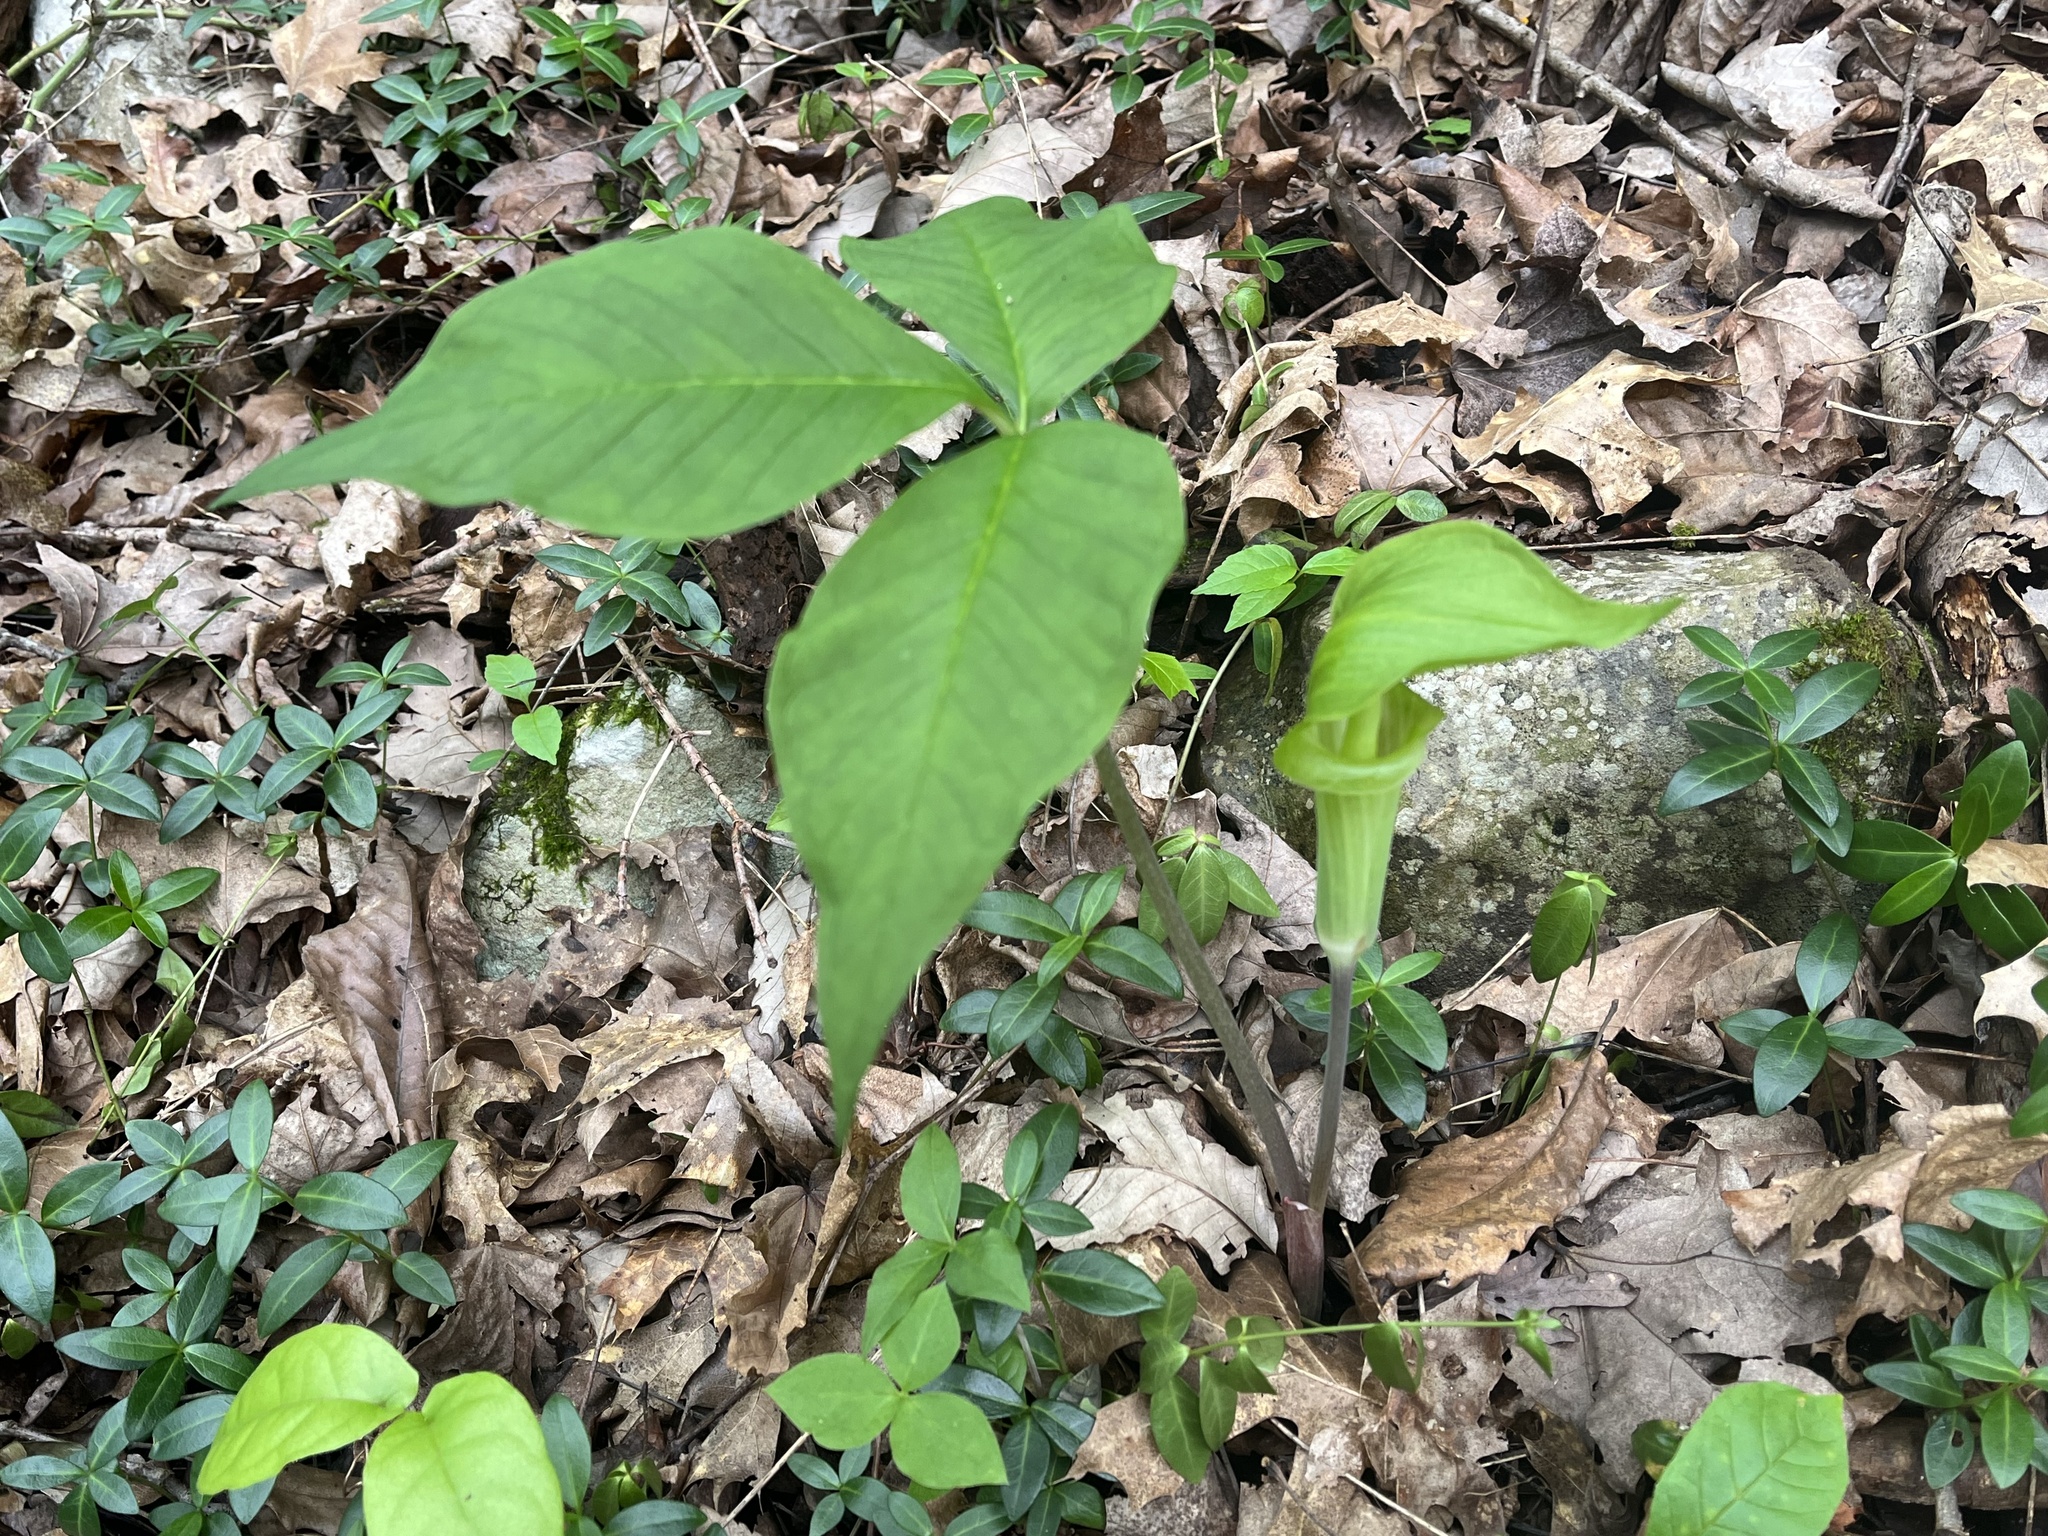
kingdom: Plantae
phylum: Tracheophyta
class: Liliopsida
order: Alismatales
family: Araceae
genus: Arisaema
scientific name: Arisaema triphyllum
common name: Jack-in-the-pulpit
